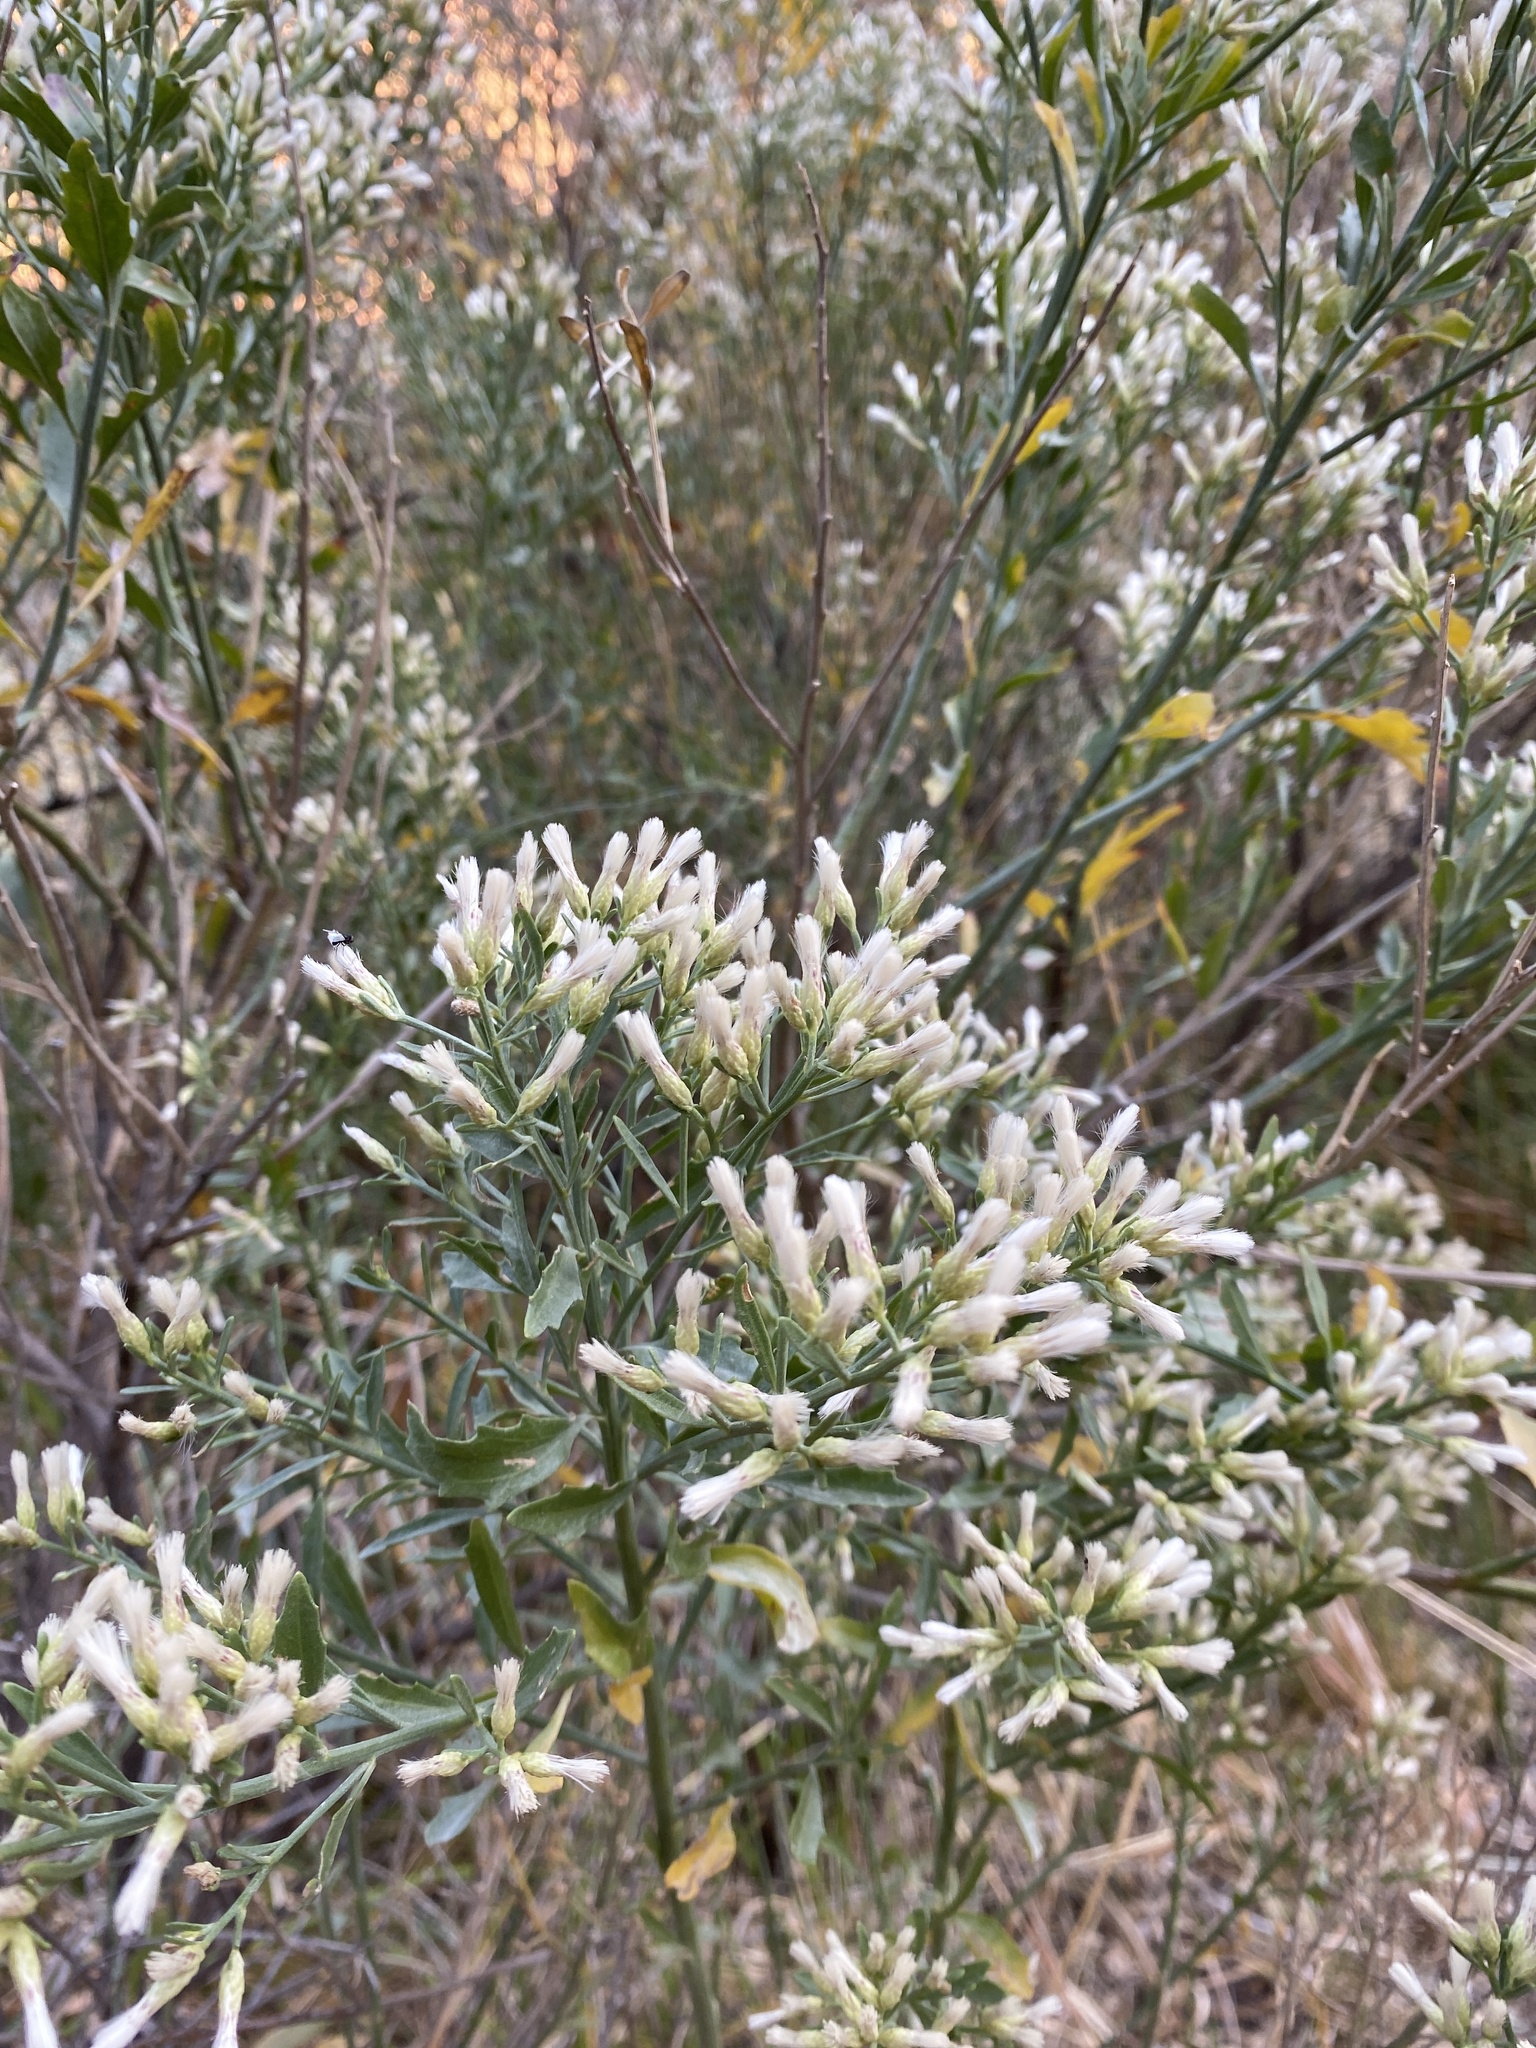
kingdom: Plantae
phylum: Tracheophyta
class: Magnoliopsida
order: Asterales
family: Asteraceae
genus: Baccharis
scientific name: Baccharis salicifolia
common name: Sticky baccharis
